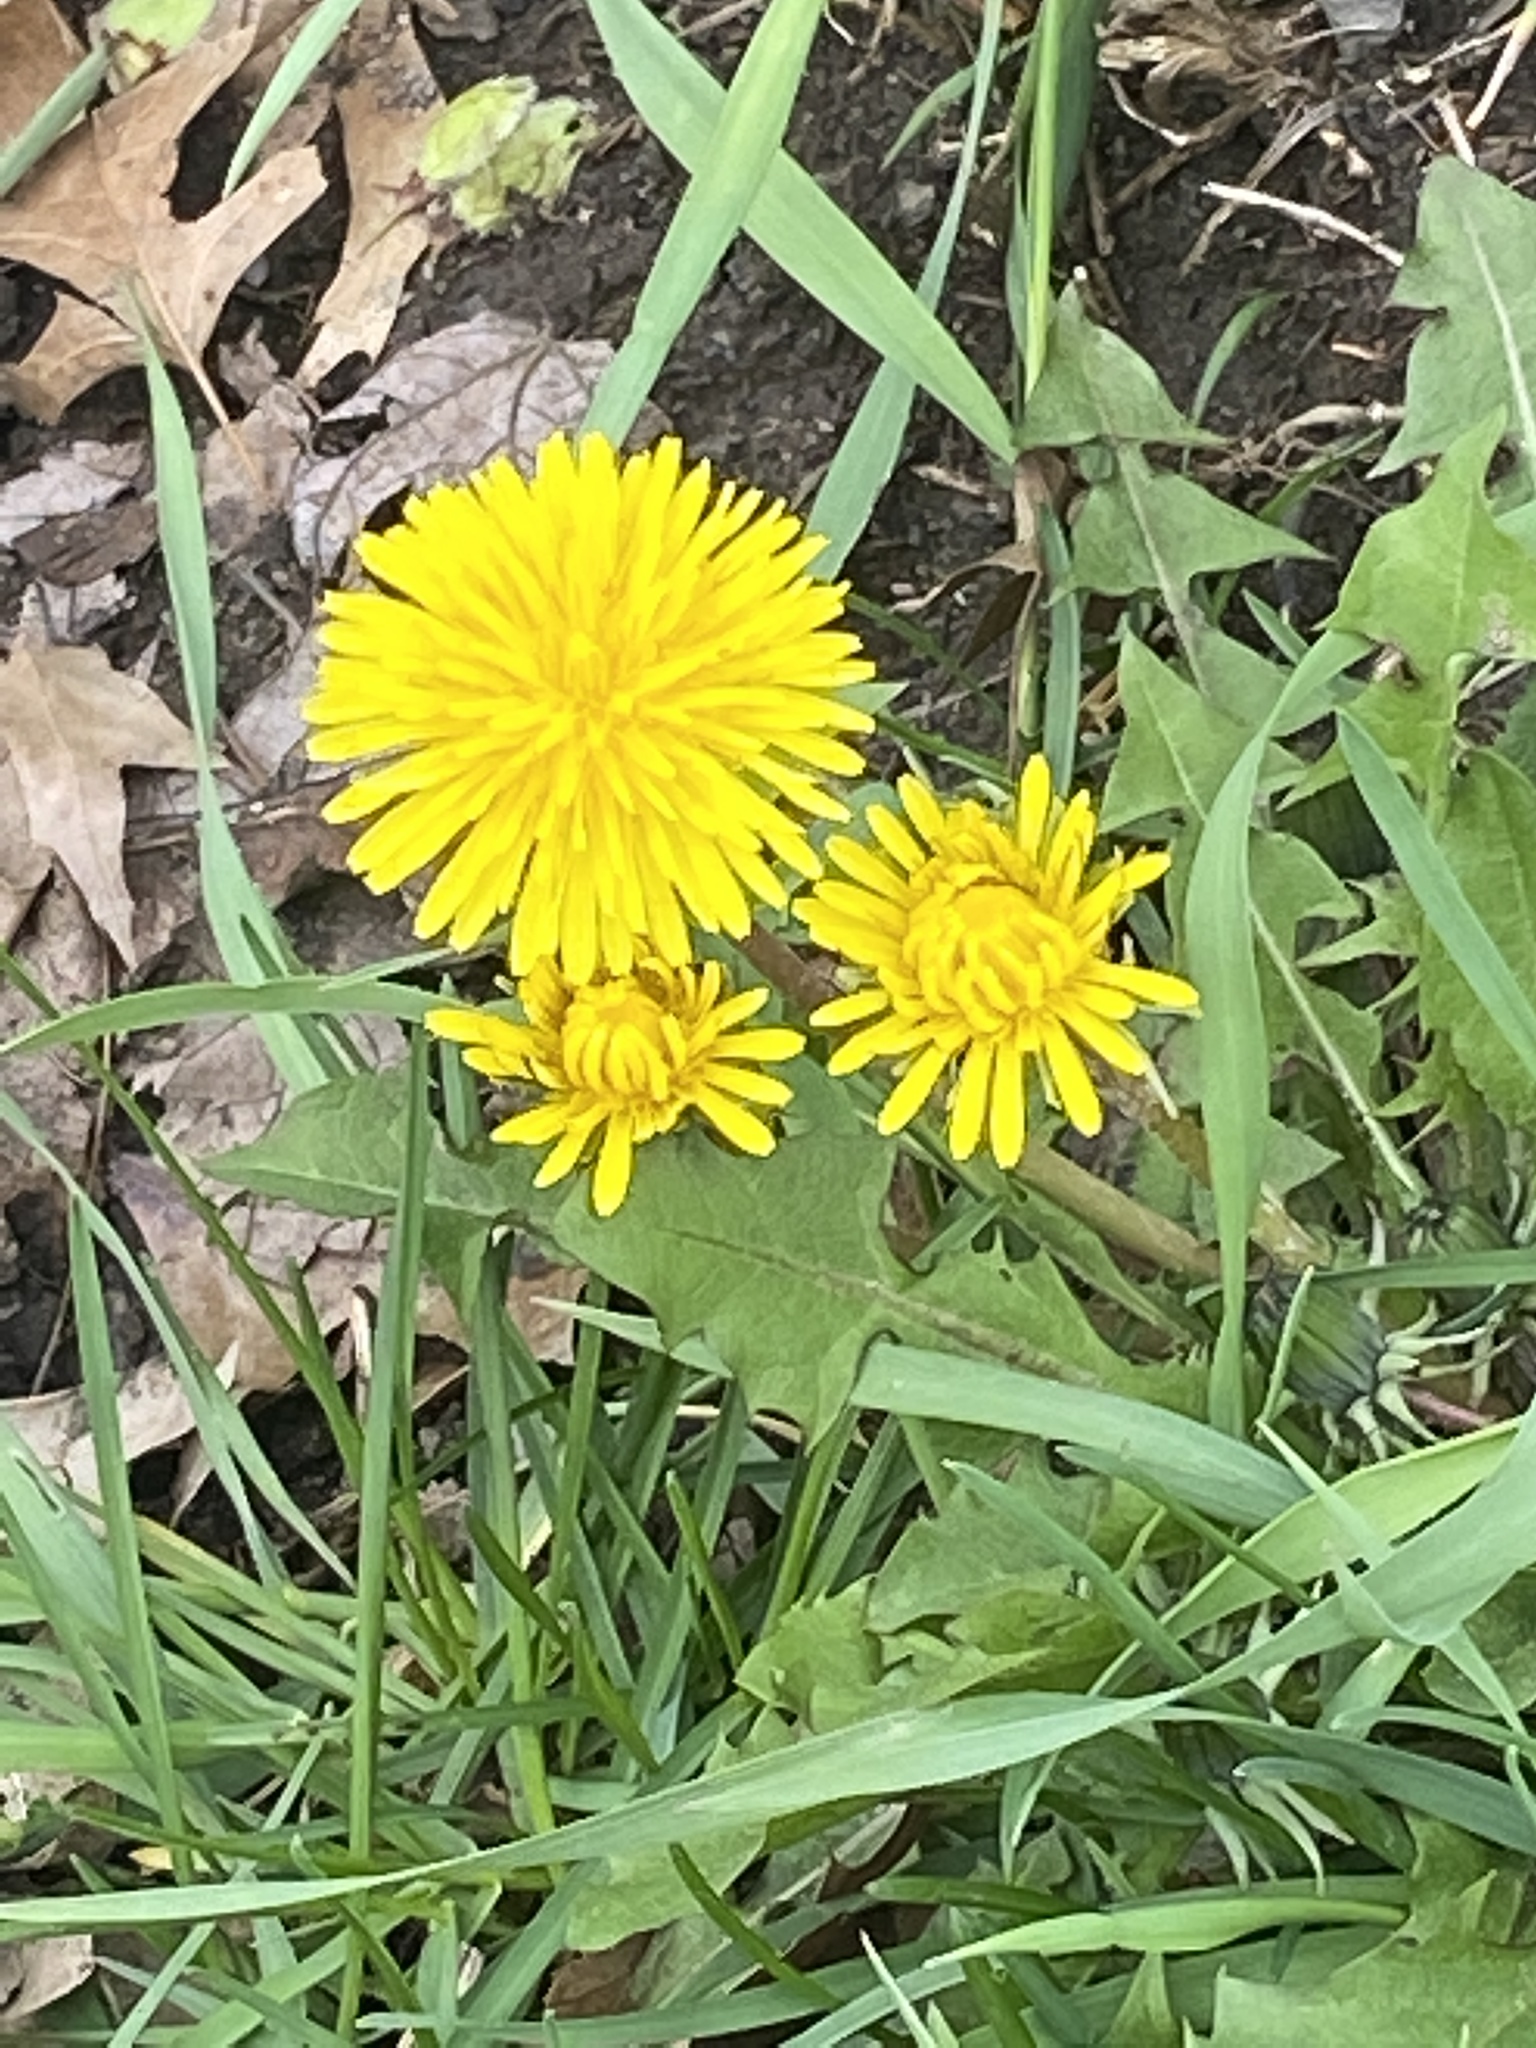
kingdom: Plantae
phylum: Tracheophyta
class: Magnoliopsida
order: Asterales
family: Asteraceae
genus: Taraxacum
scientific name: Taraxacum
